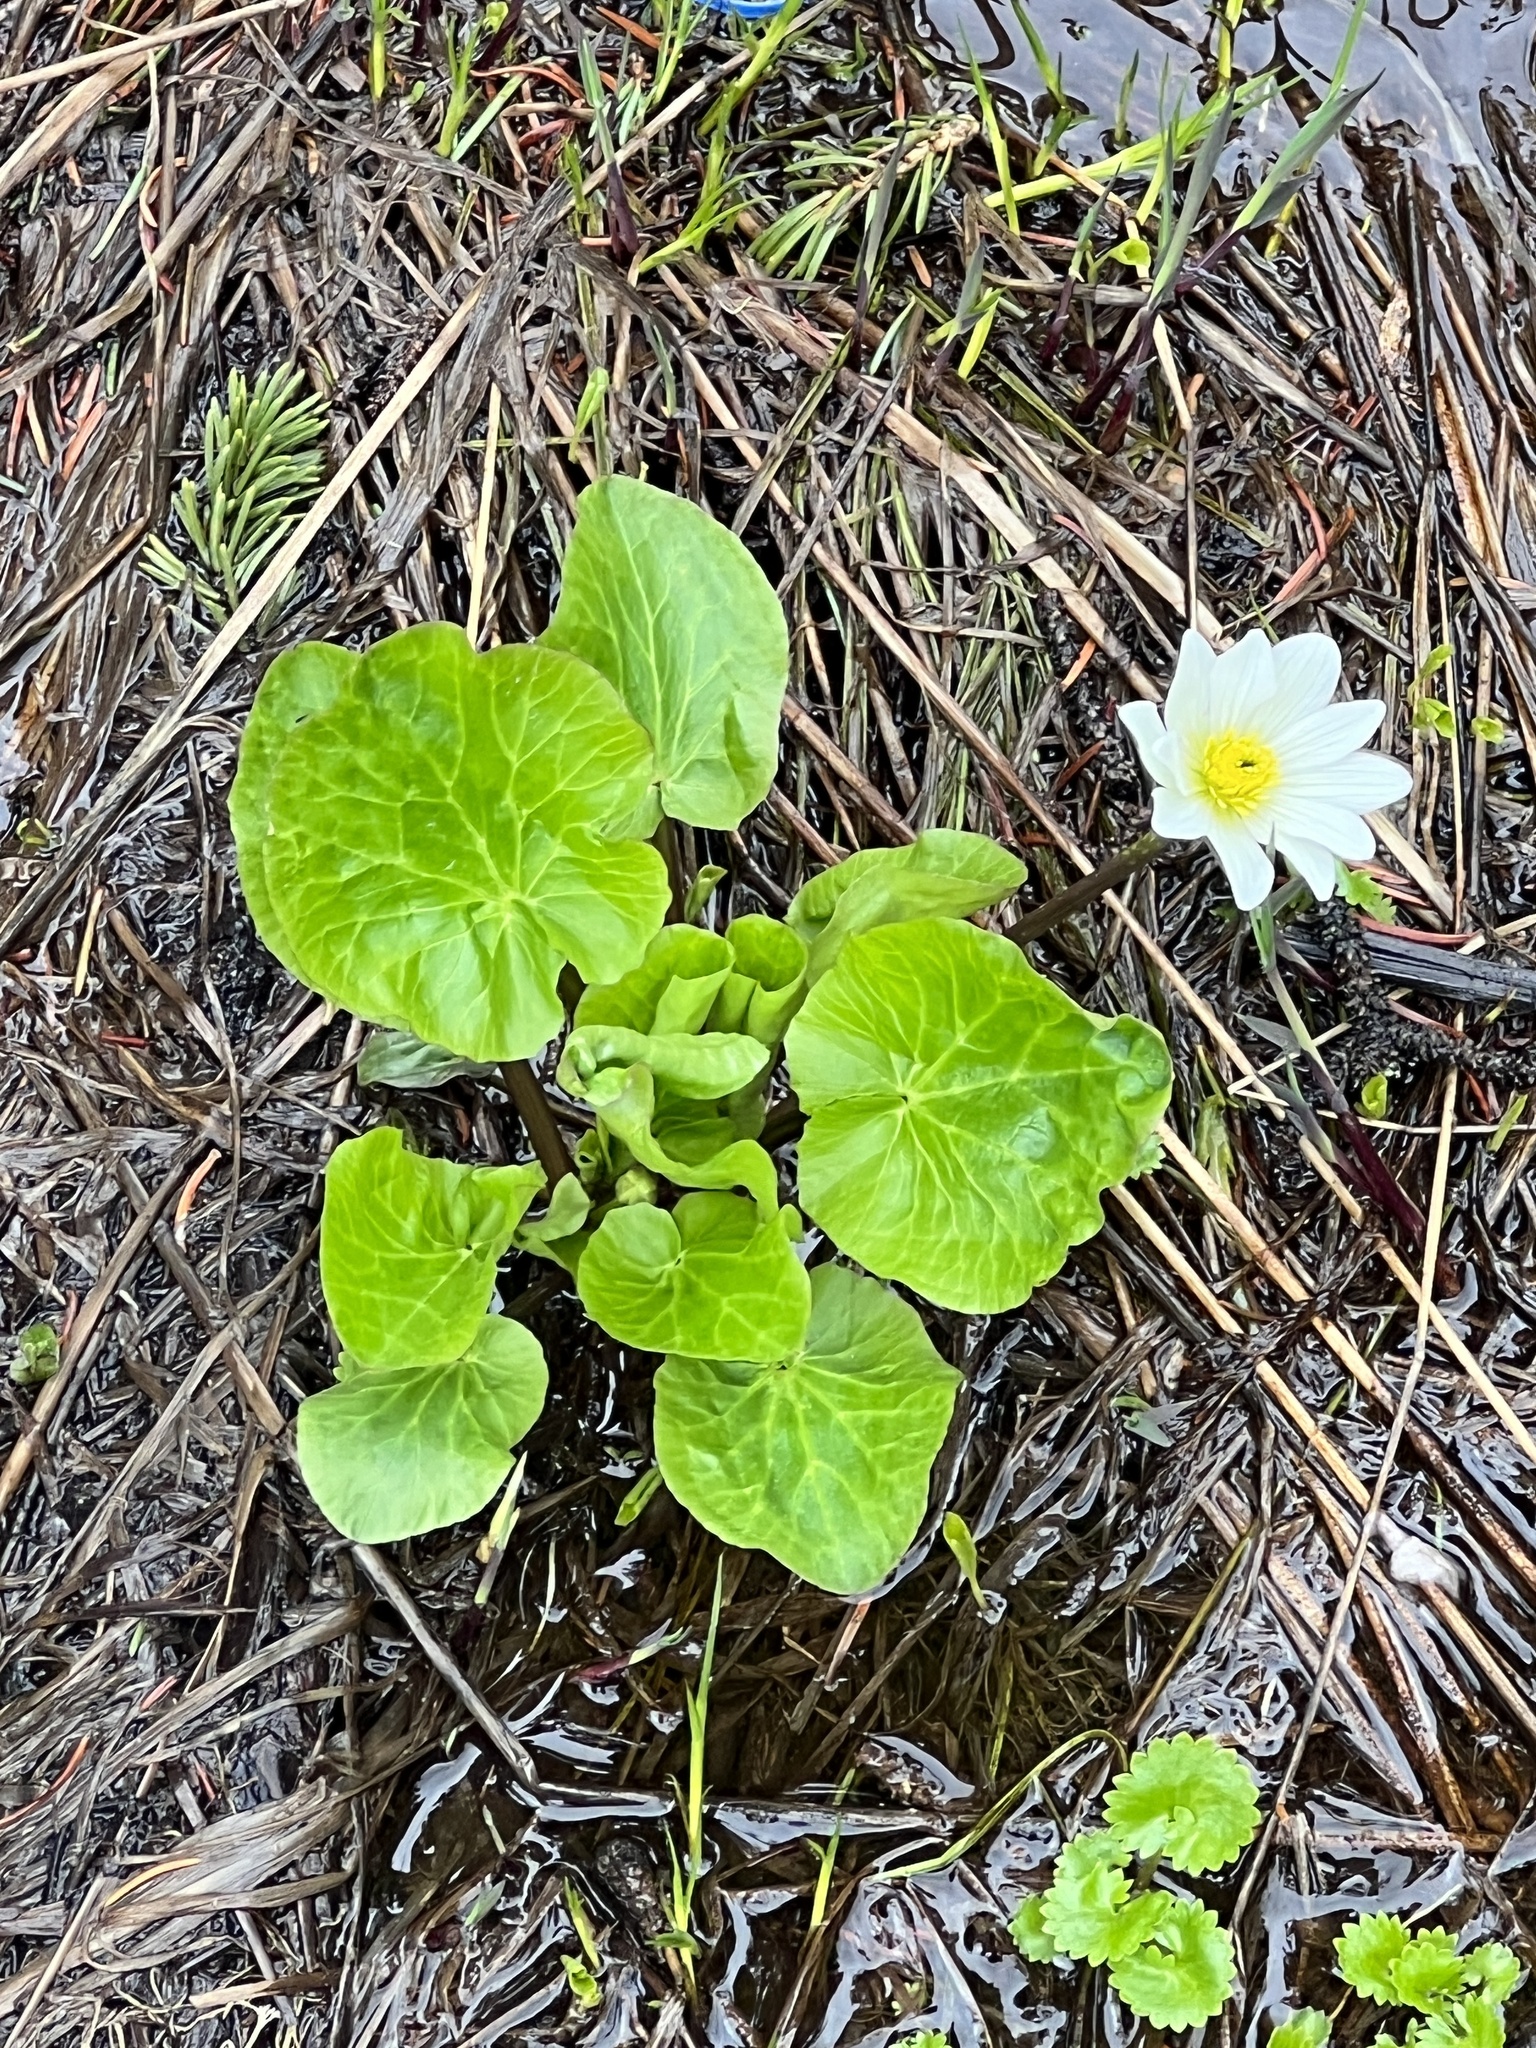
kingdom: Plantae
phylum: Tracheophyta
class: Magnoliopsida
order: Ranunculales
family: Ranunculaceae
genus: Caltha
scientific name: Caltha leptosepala
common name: Elkslip
